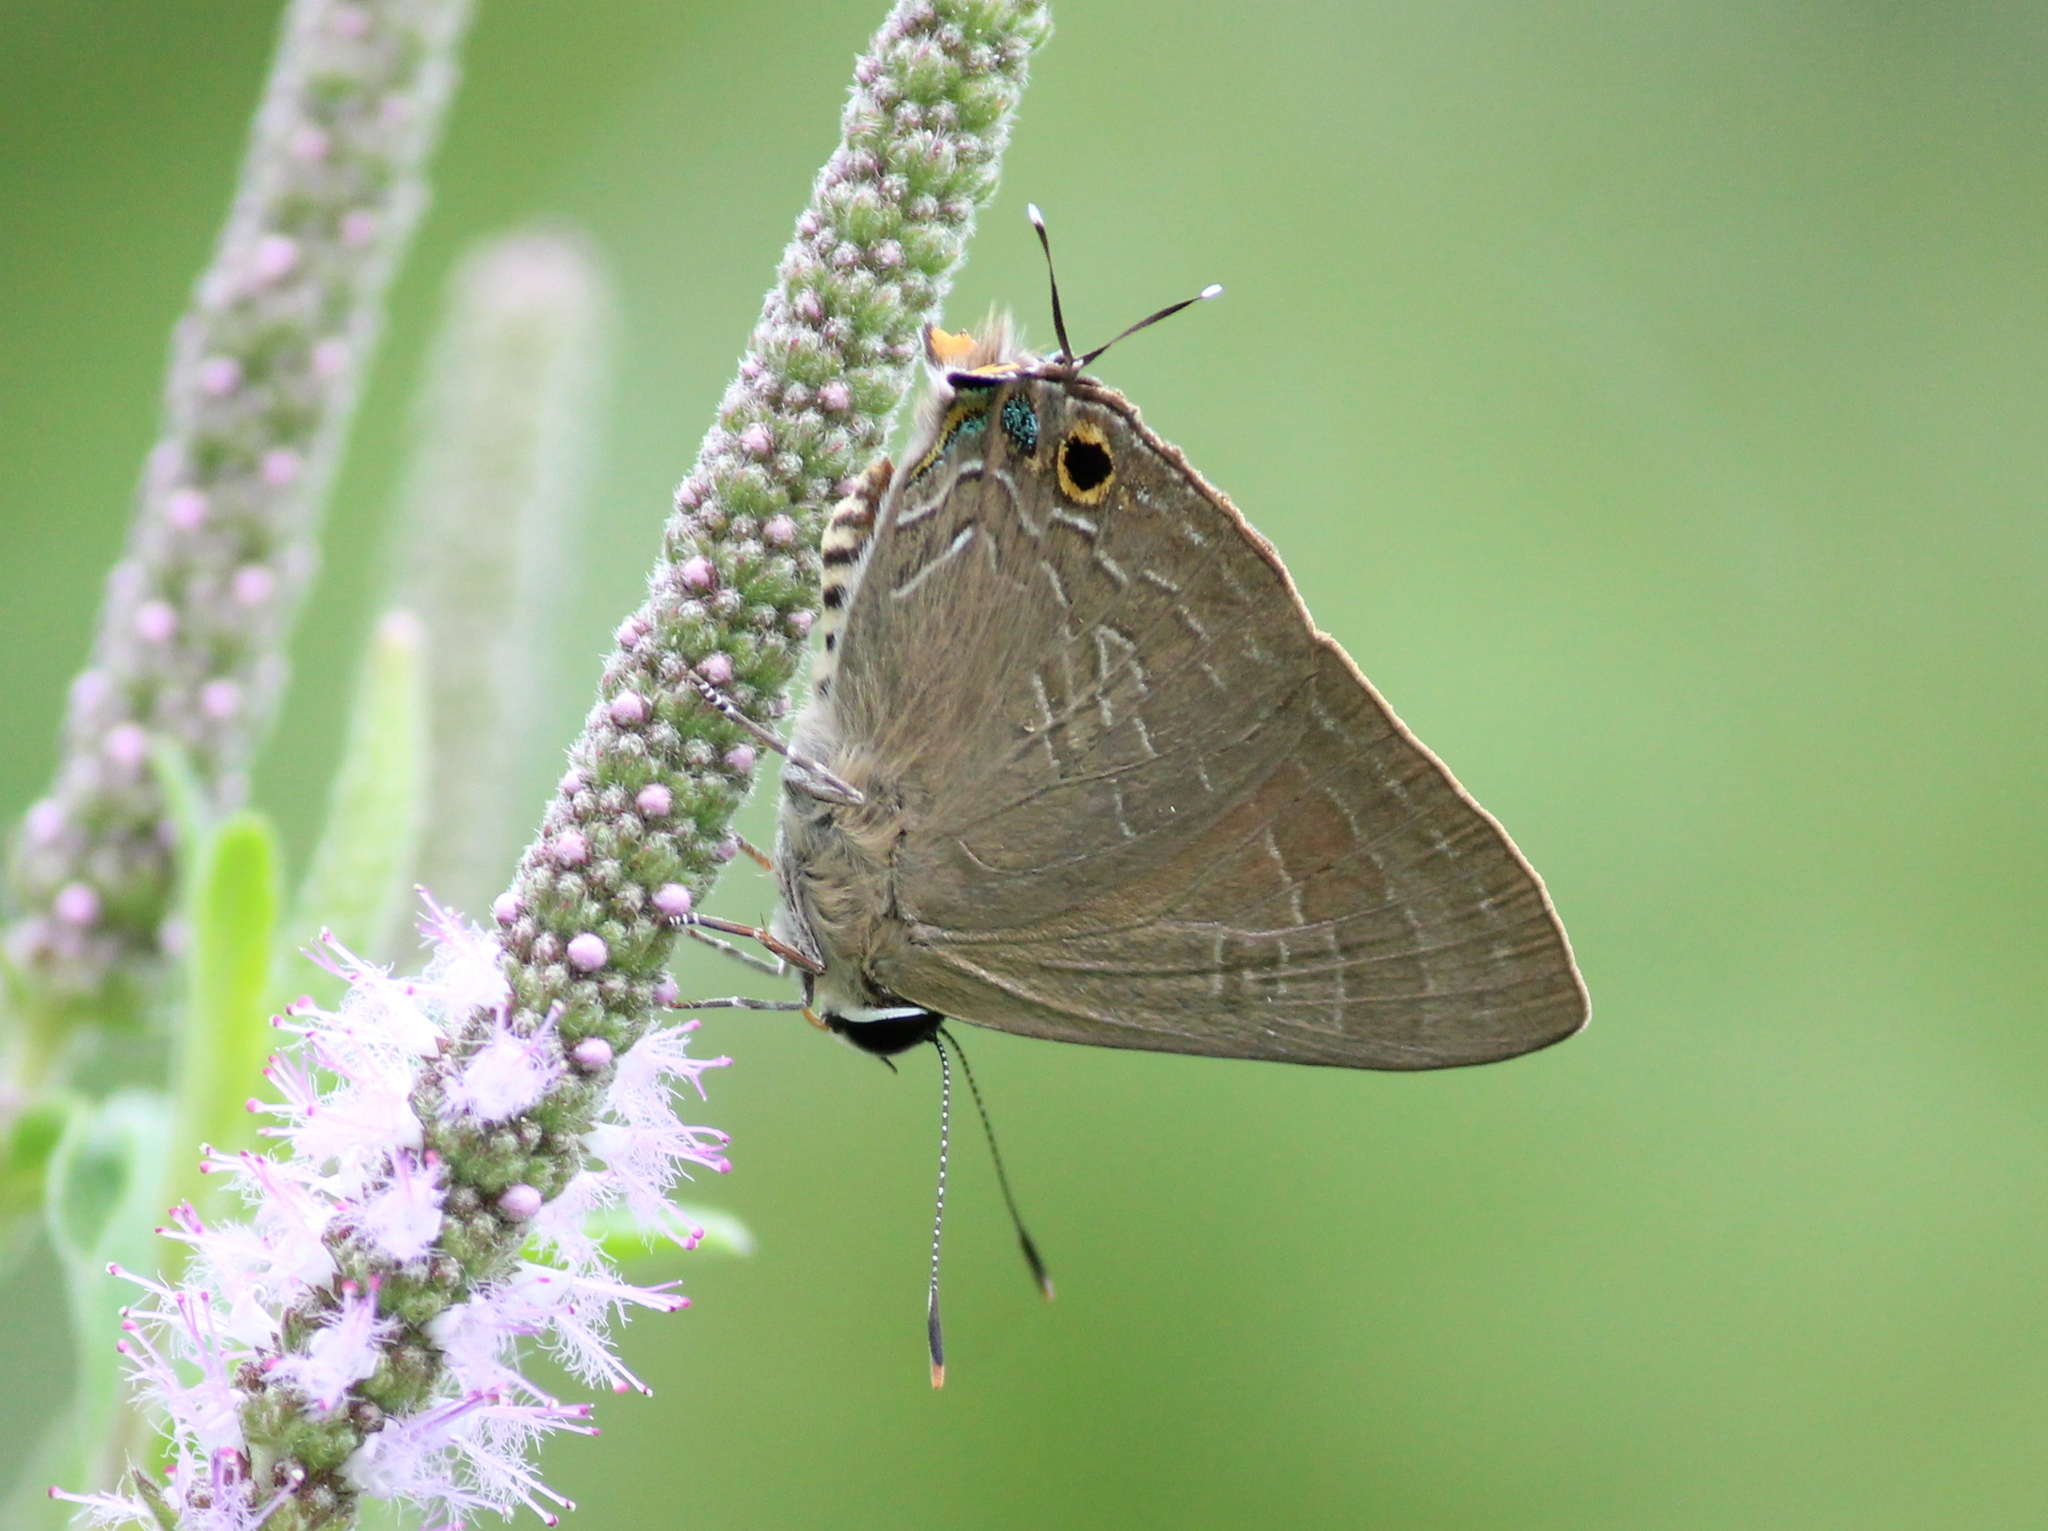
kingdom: Animalia
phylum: Arthropoda
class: Insecta
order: Lepidoptera
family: Lycaenidae
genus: Deudorix
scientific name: Deudorix epijarbas
